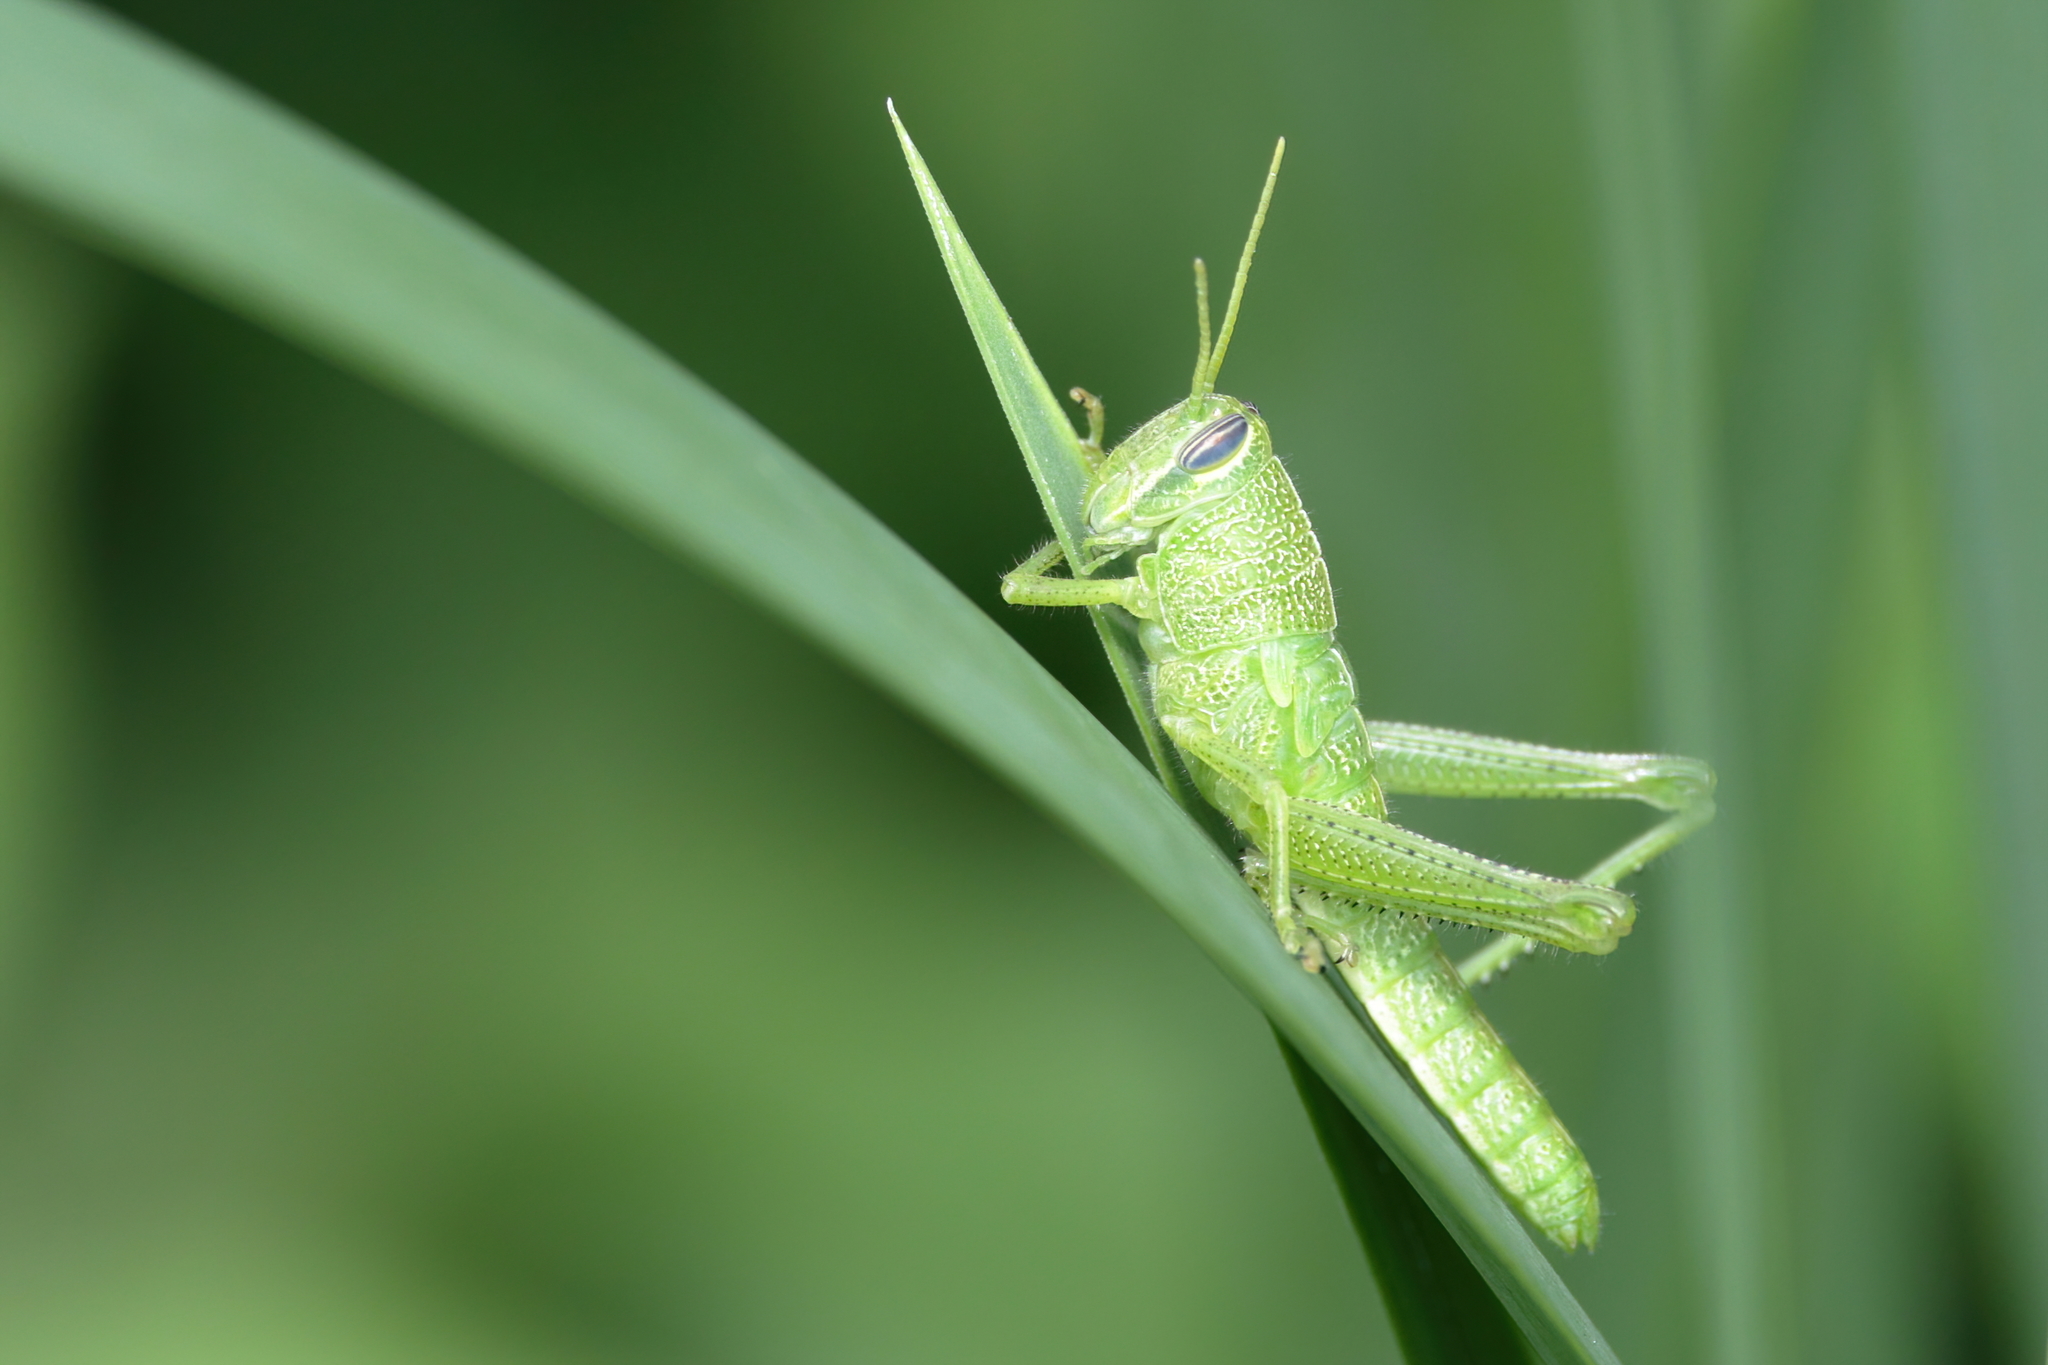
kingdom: Animalia
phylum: Arthropoda
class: Insecta
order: Orthoptera
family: Acrididae
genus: Schistocerca
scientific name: Schistocerca obscura
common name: Obscure bird grasshopper
